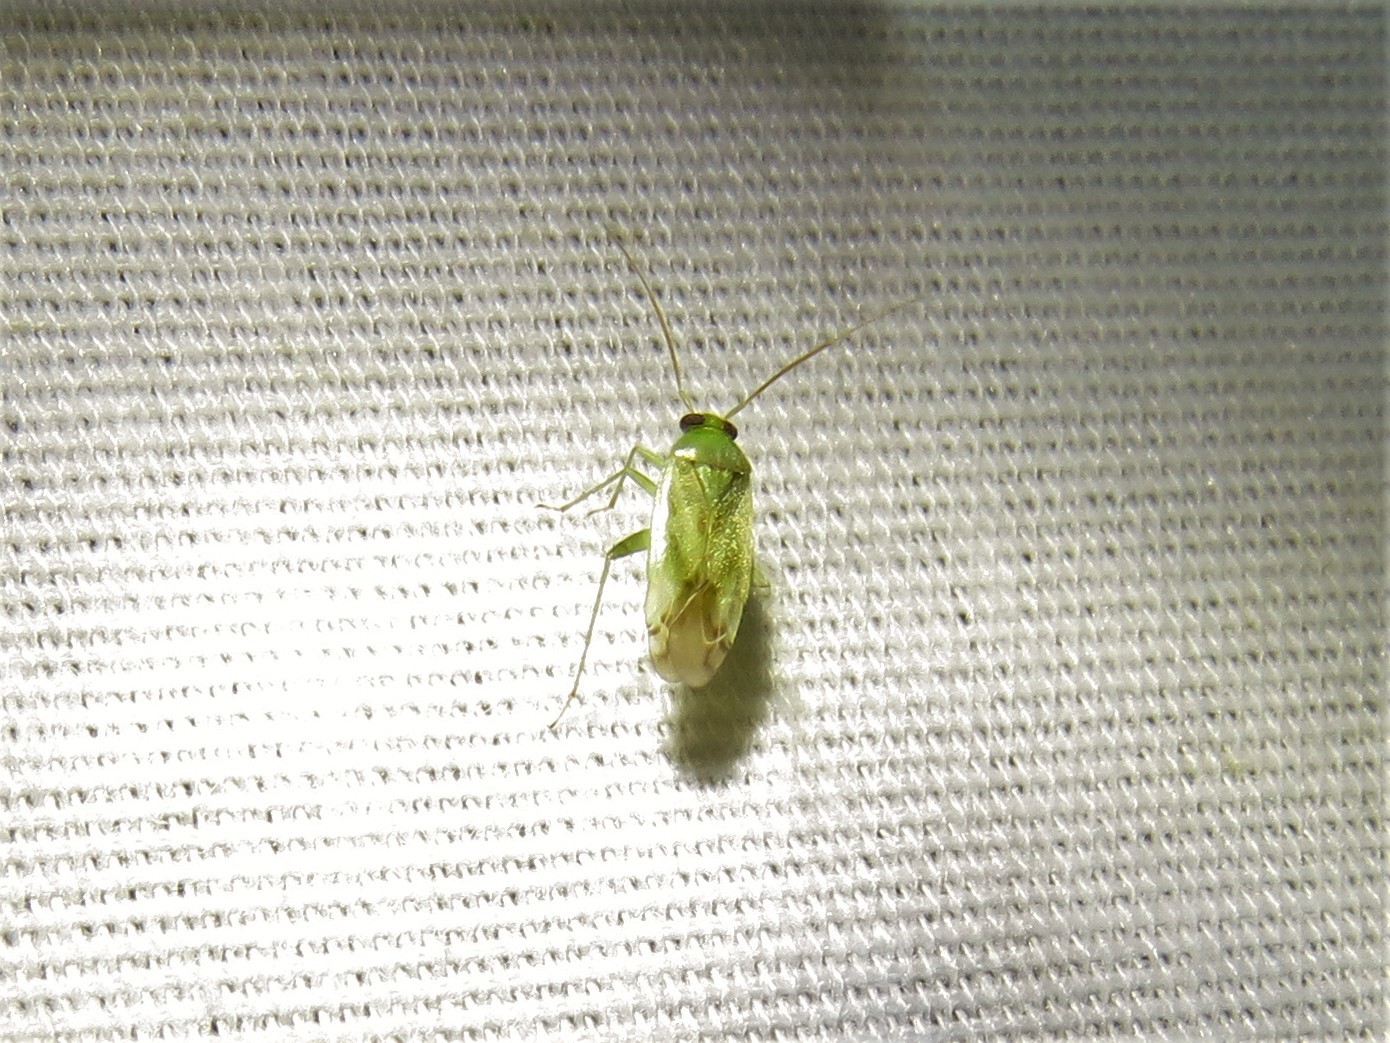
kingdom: Animalia
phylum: Arthropoda
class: Insecta
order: Hemiptera
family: Miridae
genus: Taylorilygus
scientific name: Taylorilygus apicalis
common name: Plant bug
